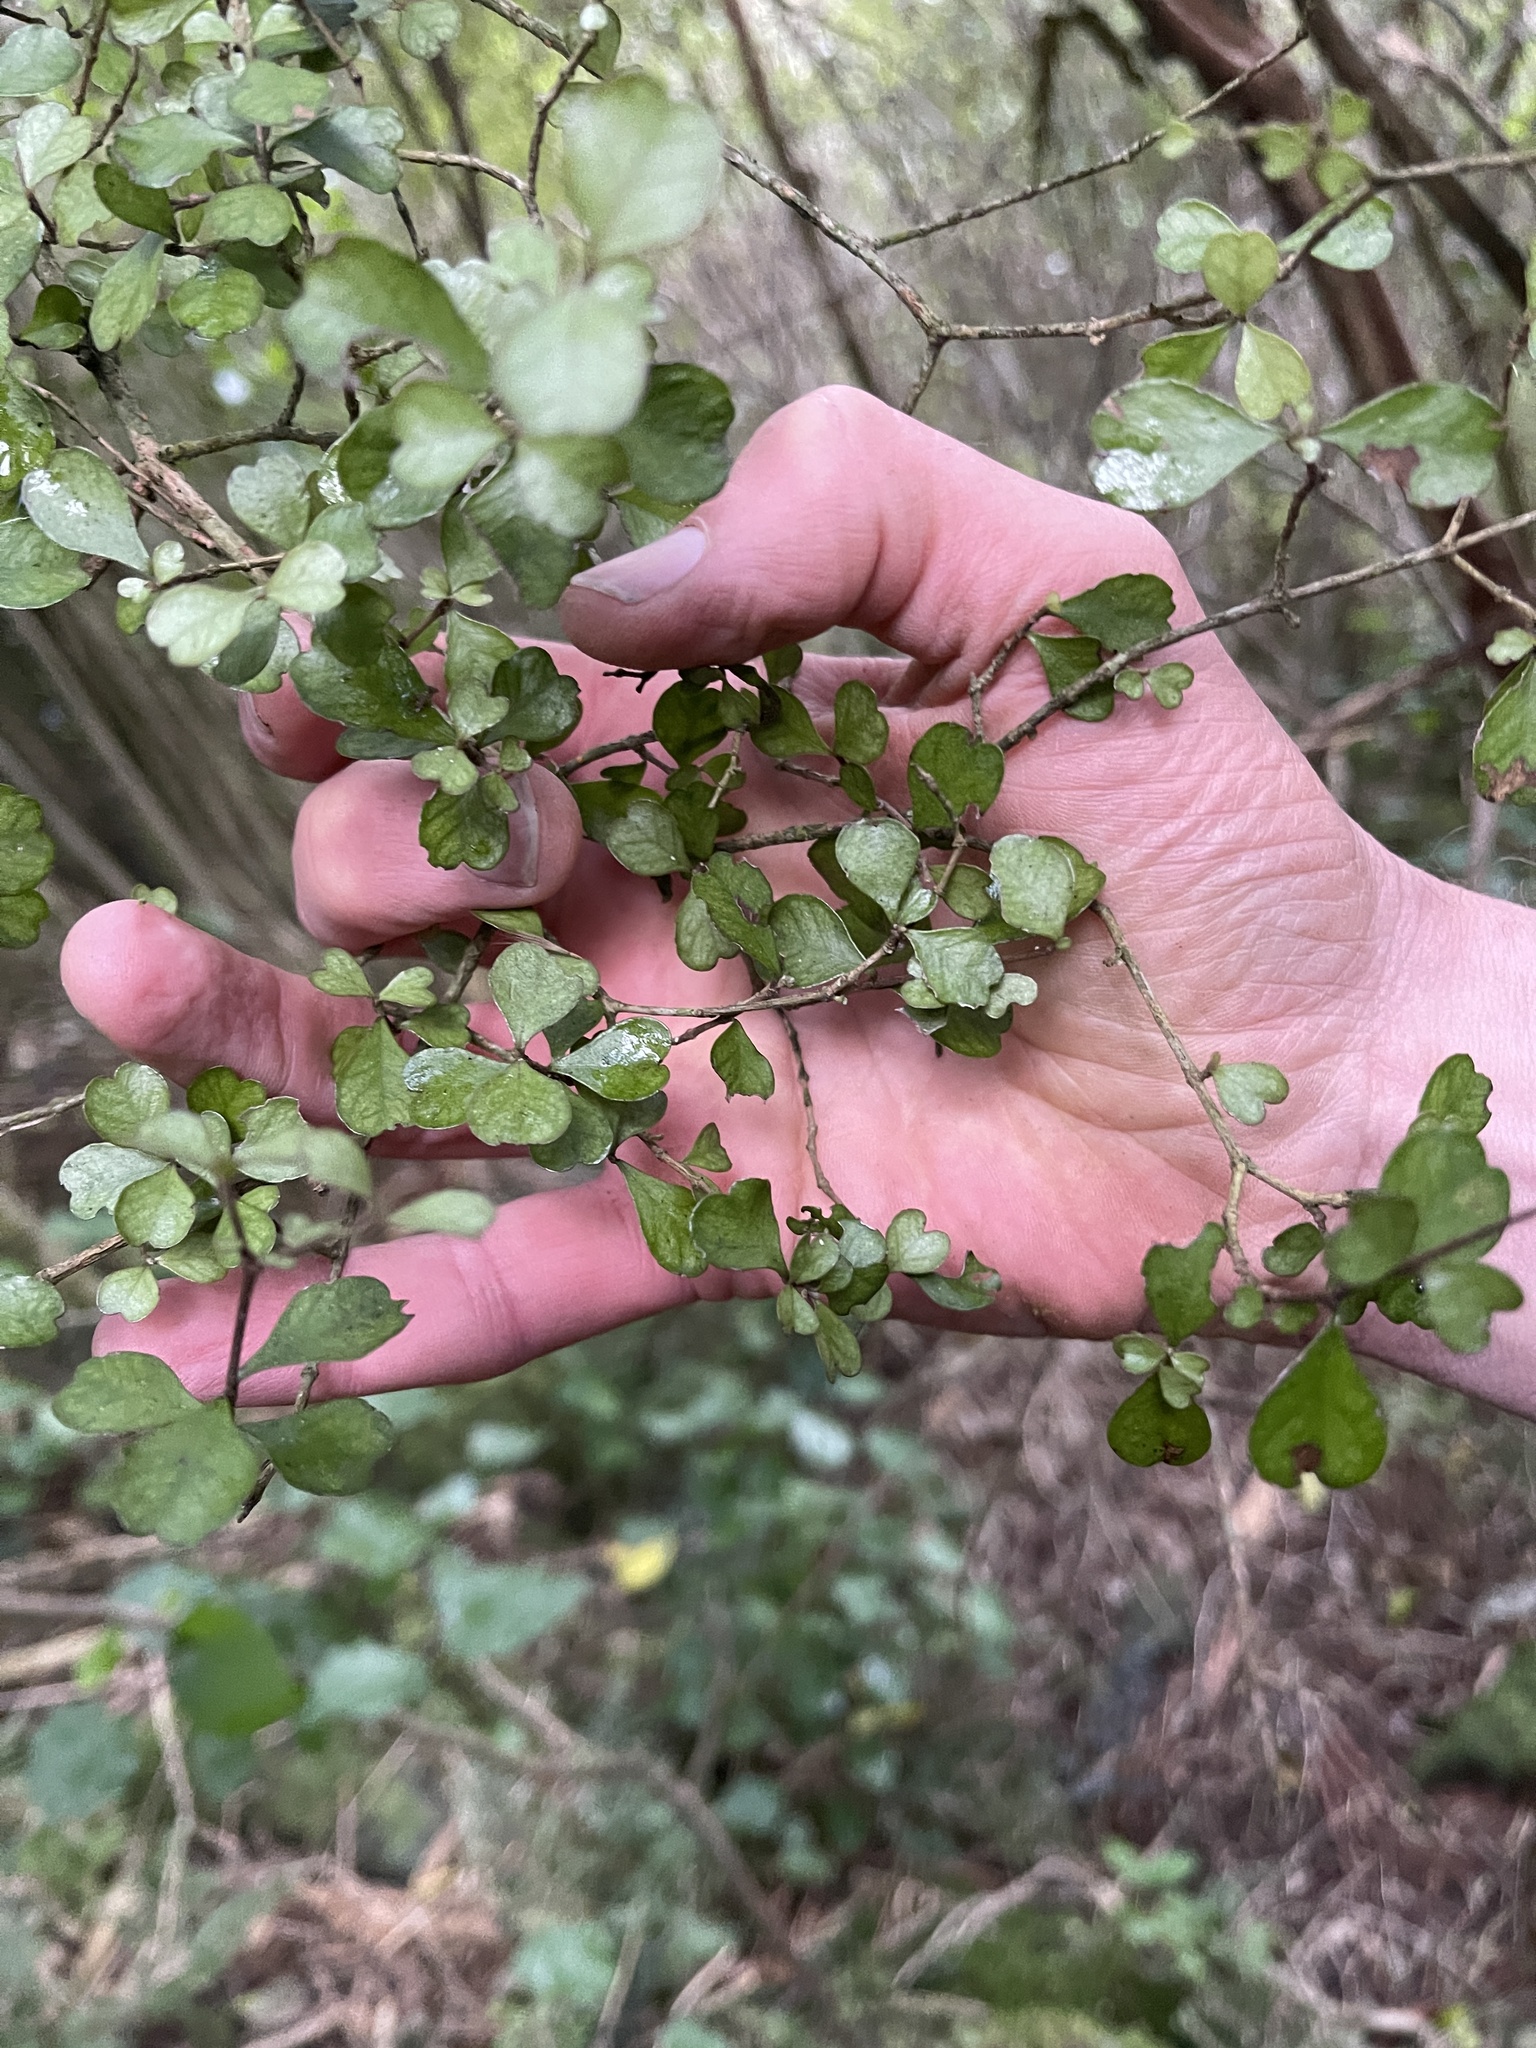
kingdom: Plantae
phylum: Tracheophyta
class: Magnoliopsida
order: Myrtales
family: Myrtaceae
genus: Lophomyrtus
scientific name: Lophomyrtus obcordata
